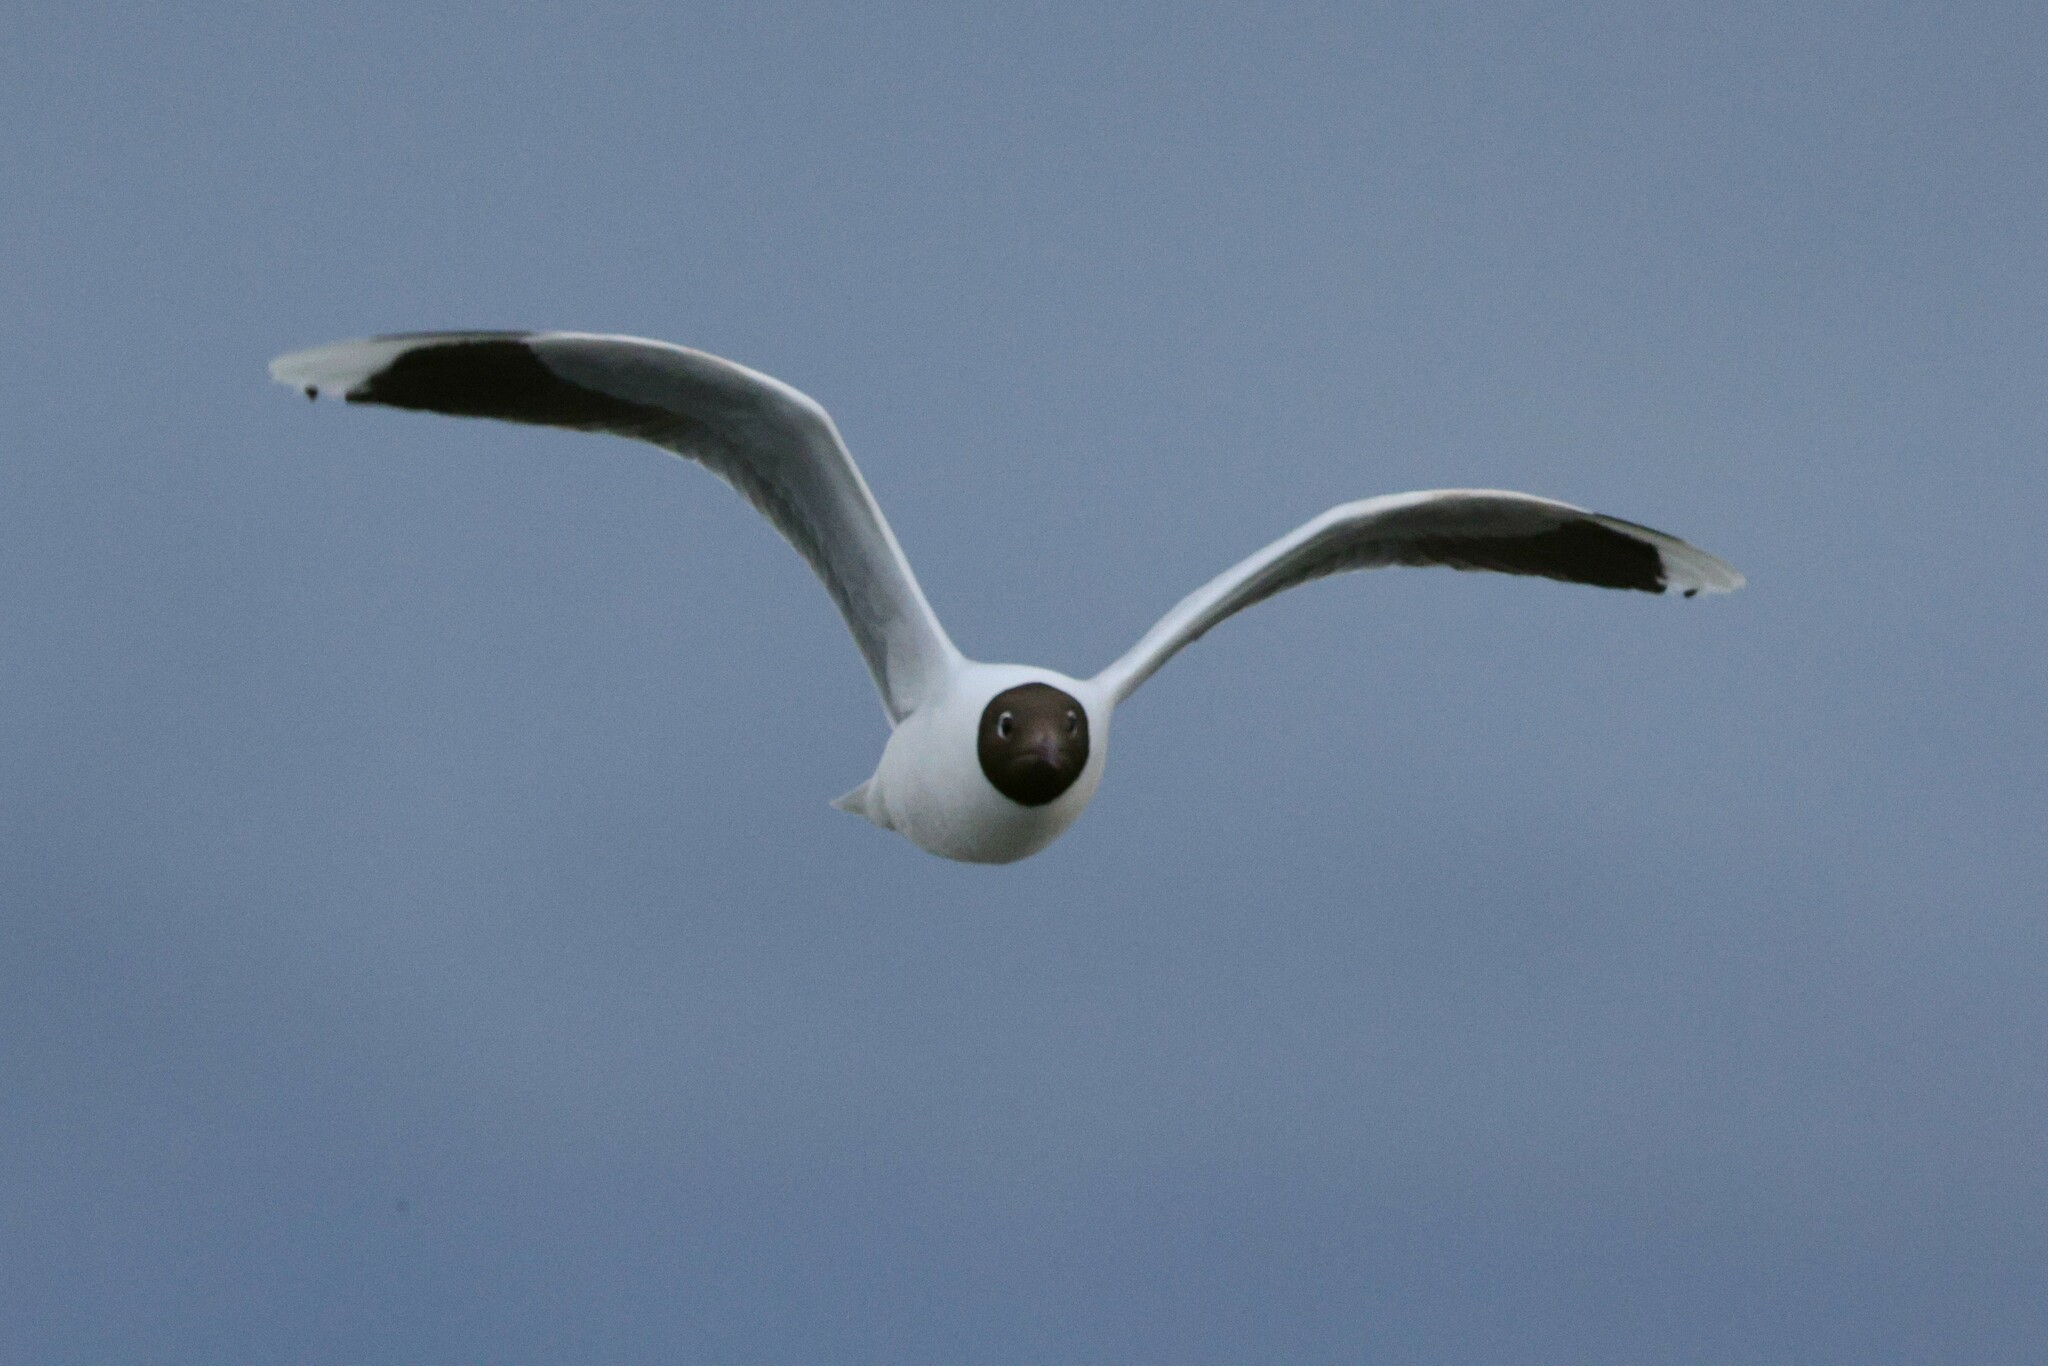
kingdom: Animalia
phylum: Chordata
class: Aves
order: Charadriiformes
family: Laridae
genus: Chroicocephalus
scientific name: Chroicocephalus maculipennis
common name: Brown-hooded gull
